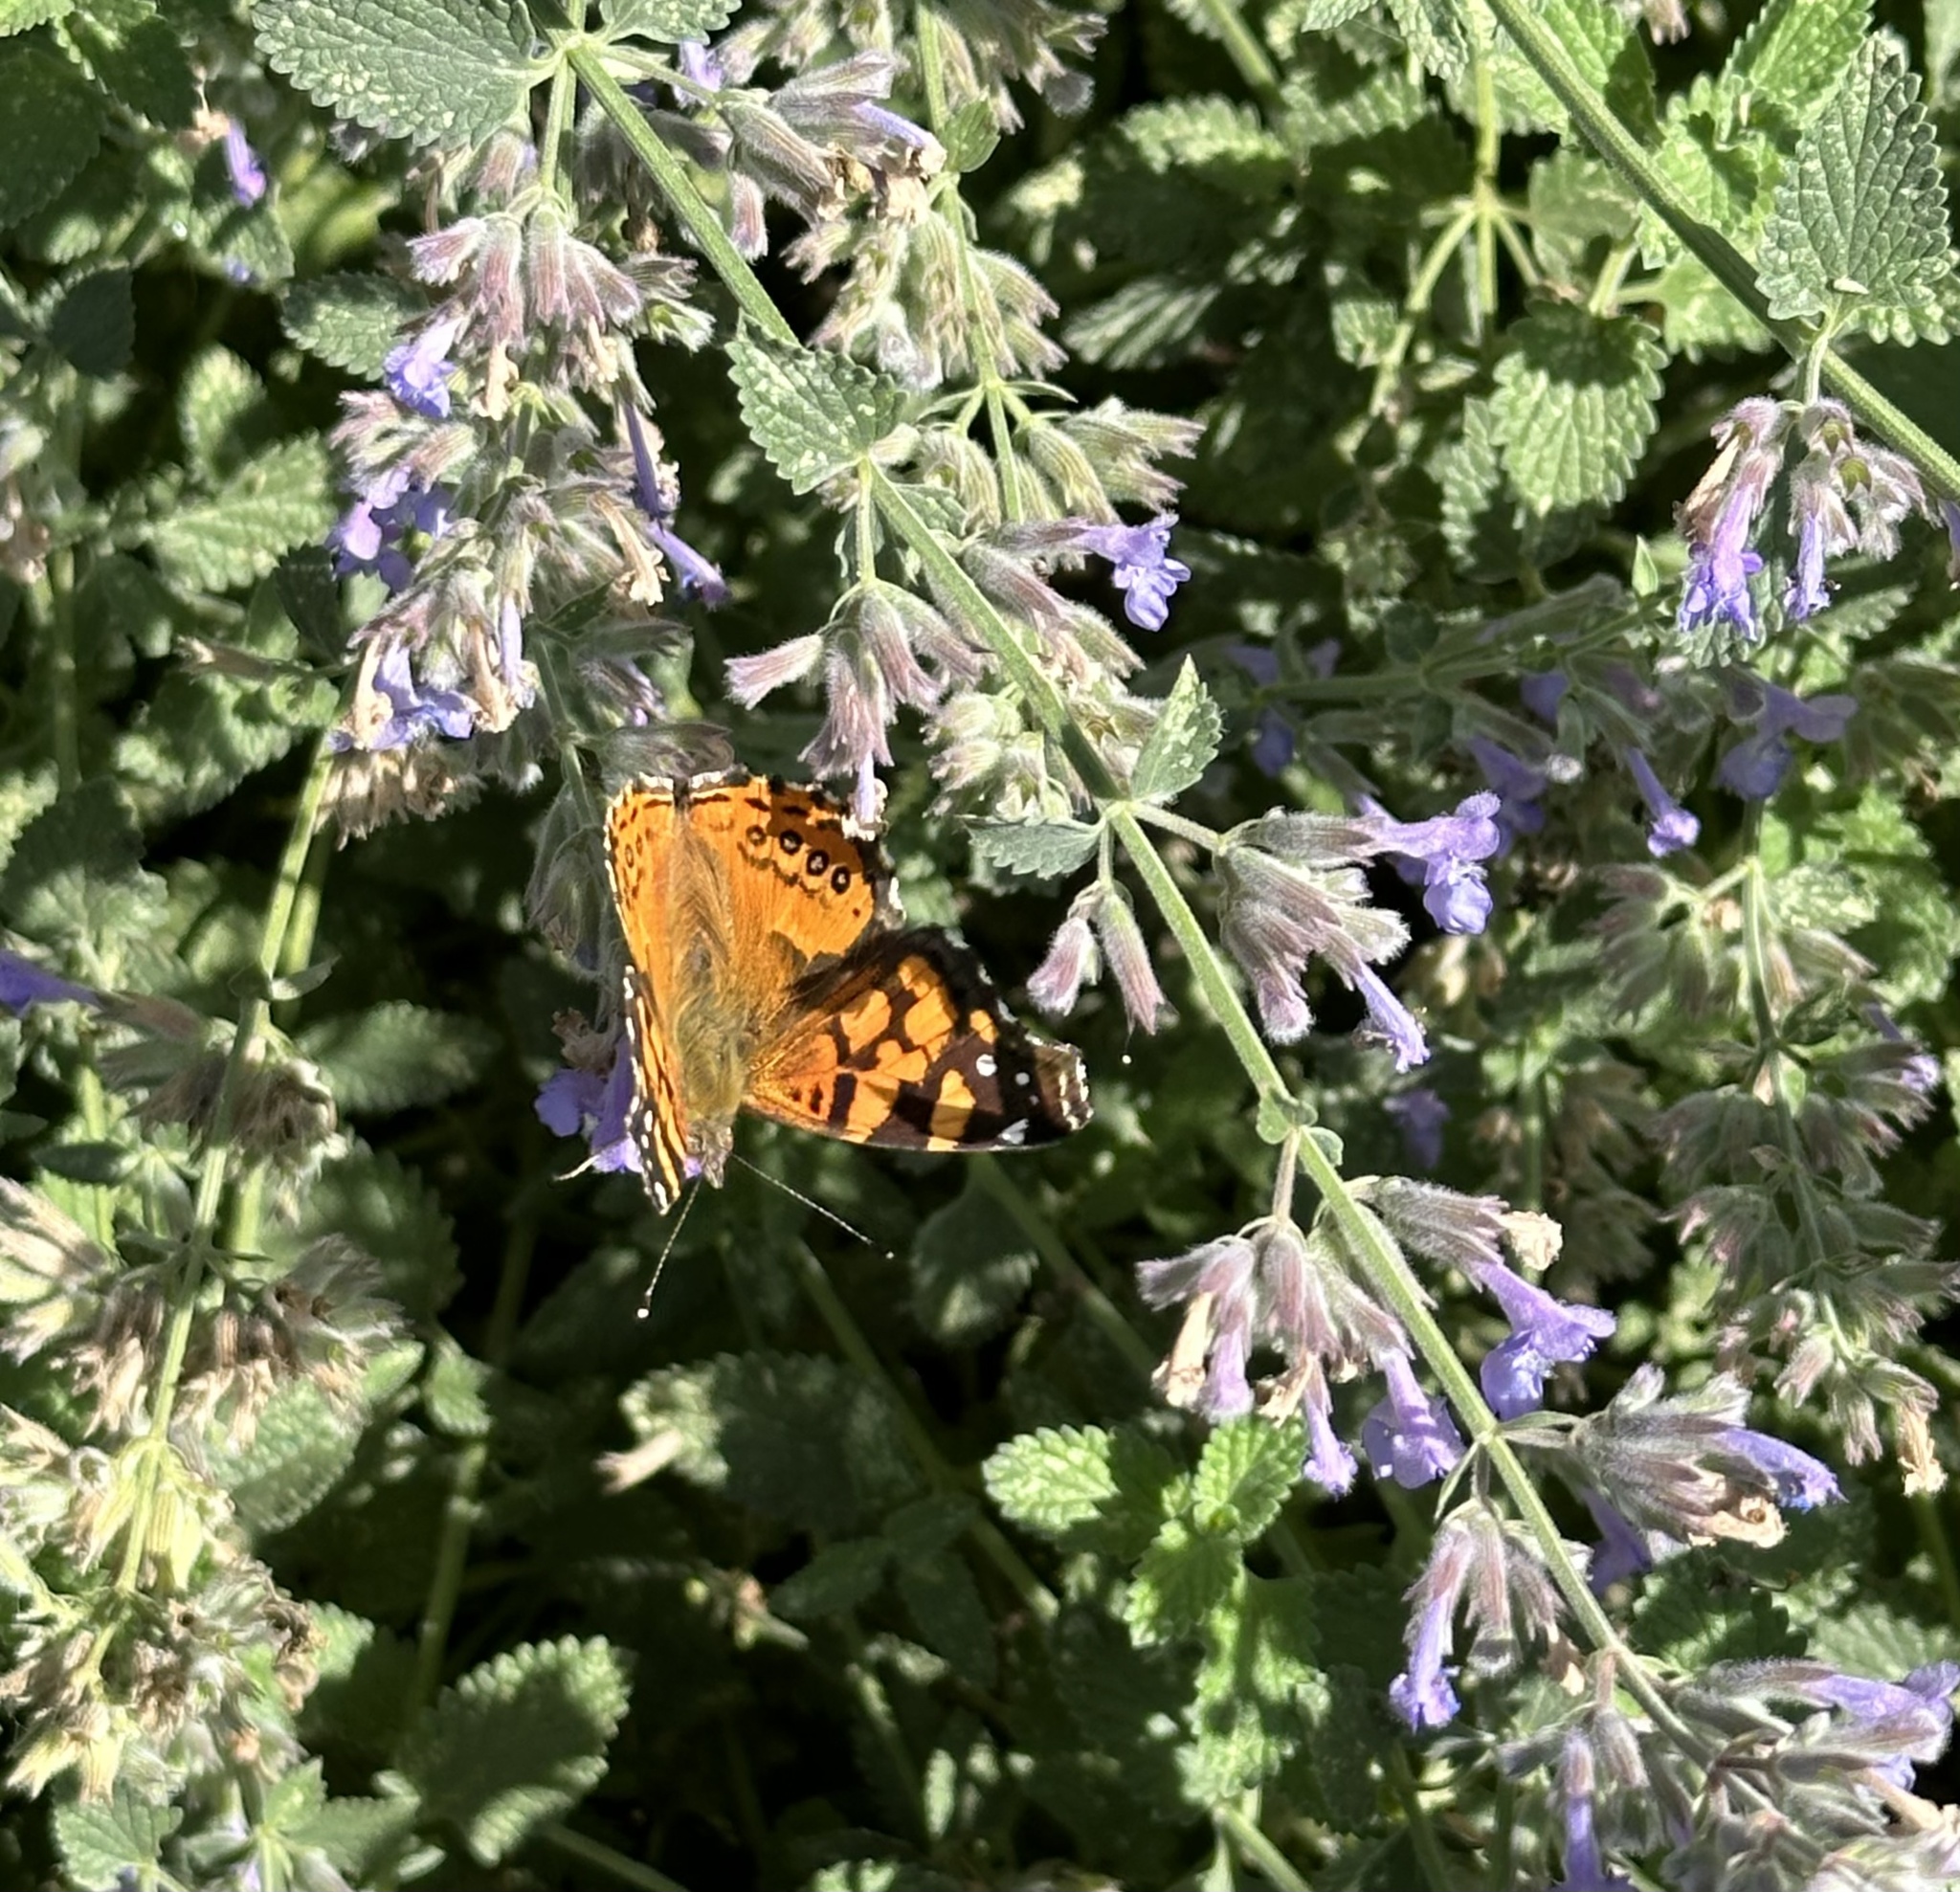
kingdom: Animalia
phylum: Arthropoda
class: Insecta
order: Lepidoptera
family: Nymphalidae
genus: Vanessa
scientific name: Vanessa annabella
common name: West coast lady
